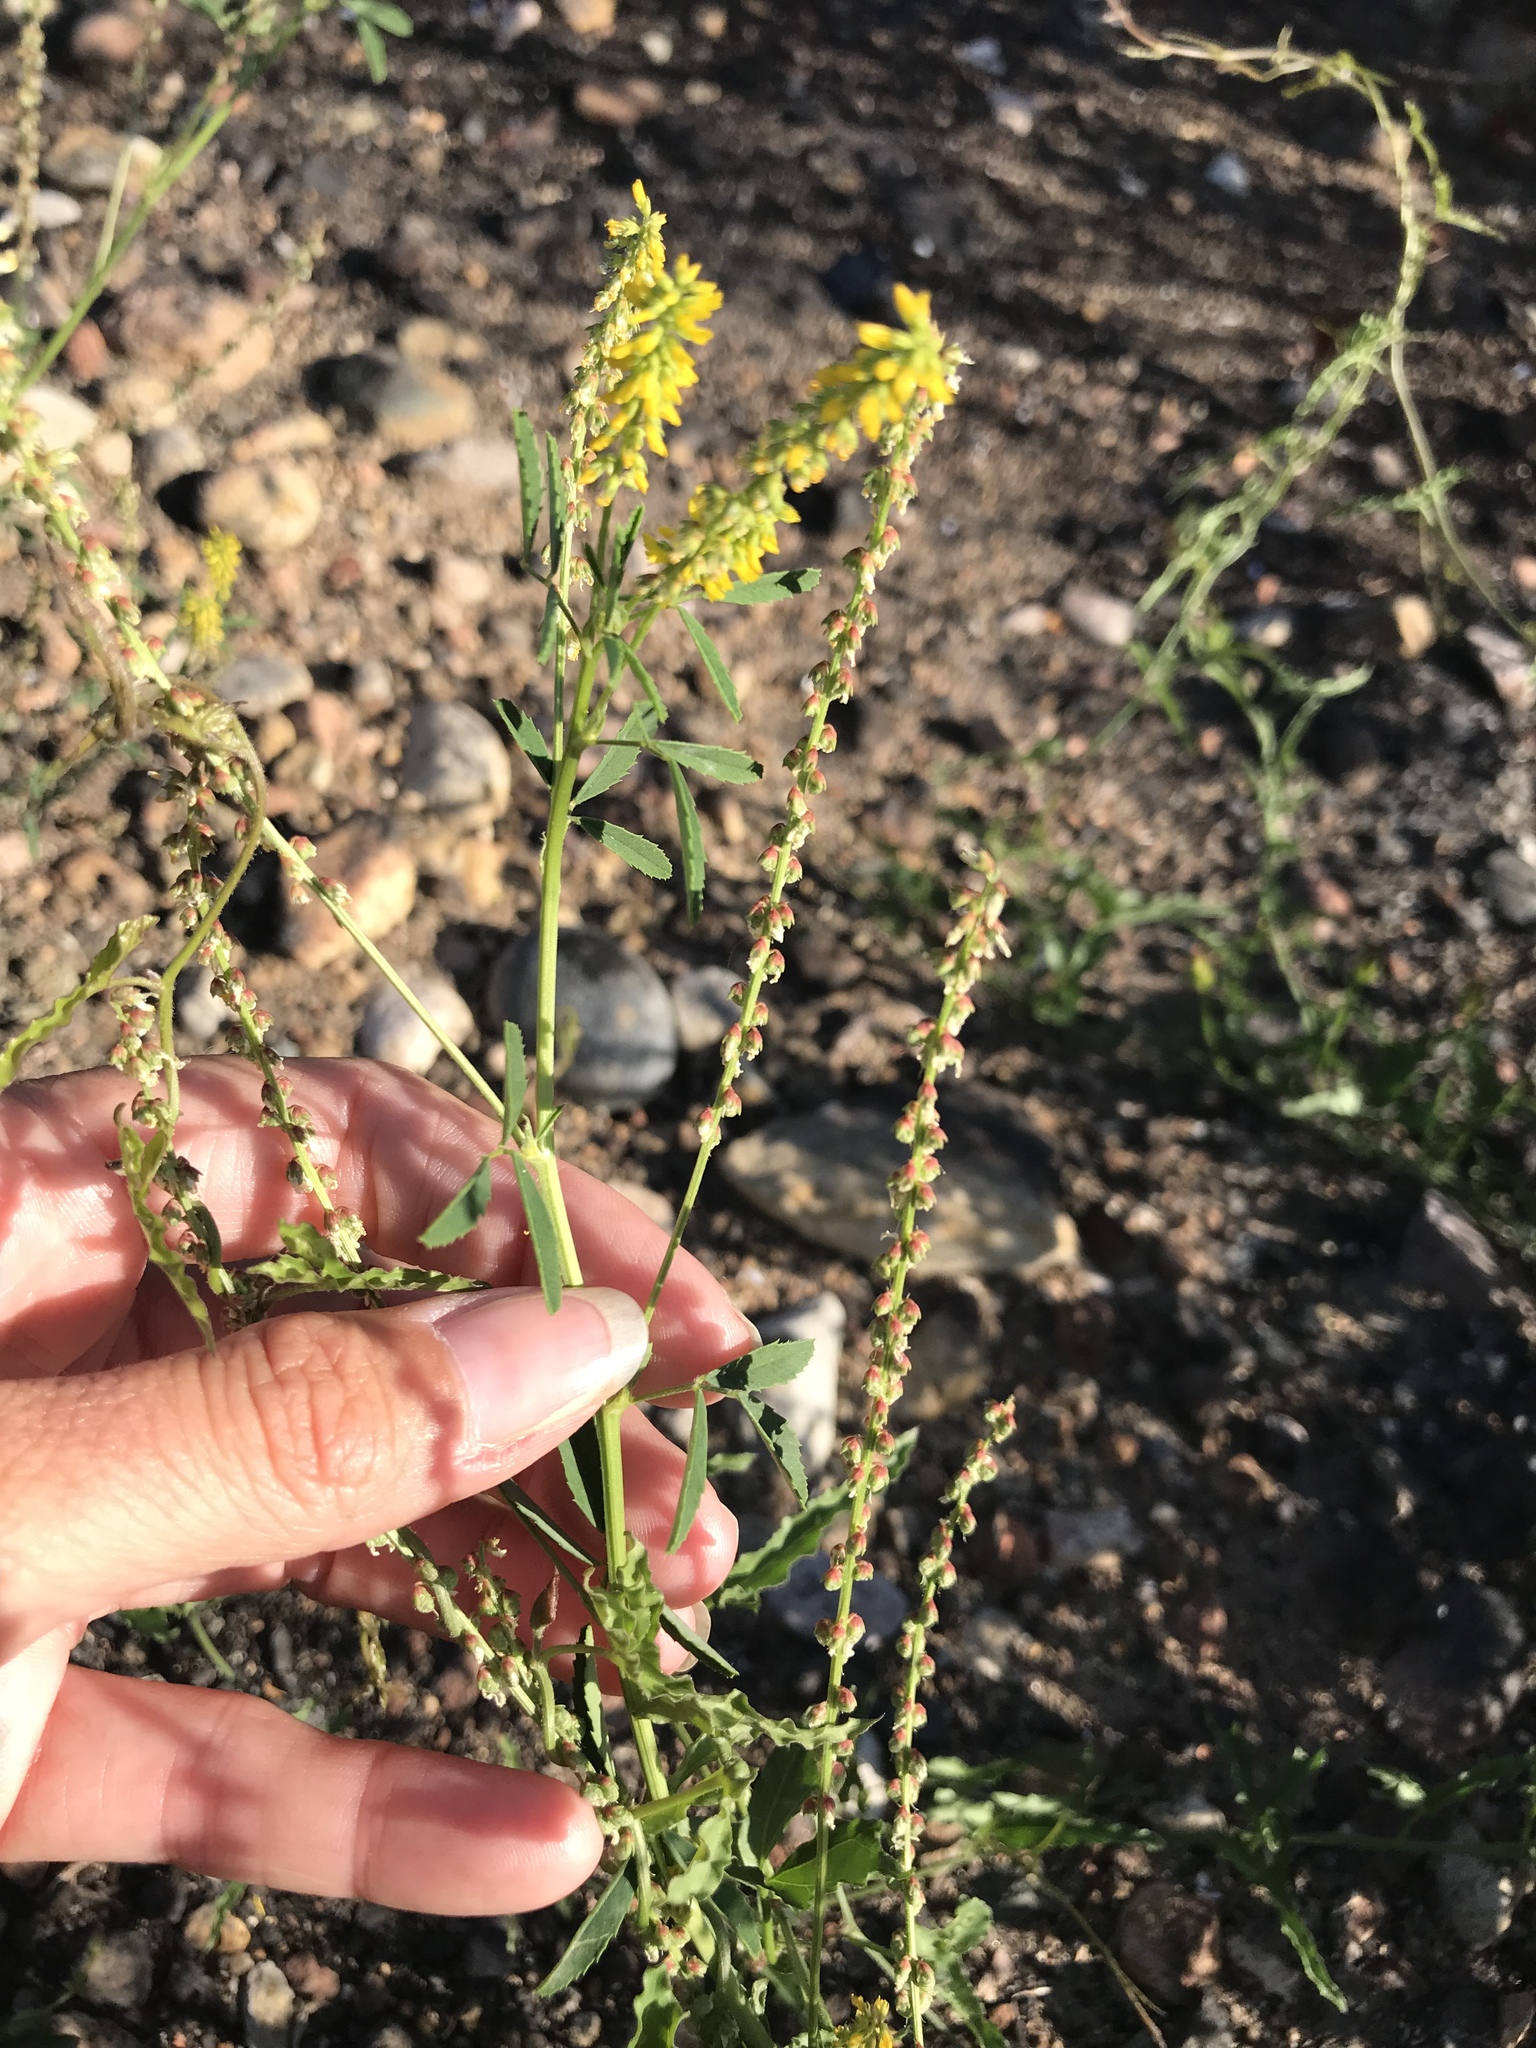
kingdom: Plantae
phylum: Tracheophyta
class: Magnoliopsida
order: Fabales
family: Fabaceae
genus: Melilotus
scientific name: Melilotus indicus
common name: Small melilot
